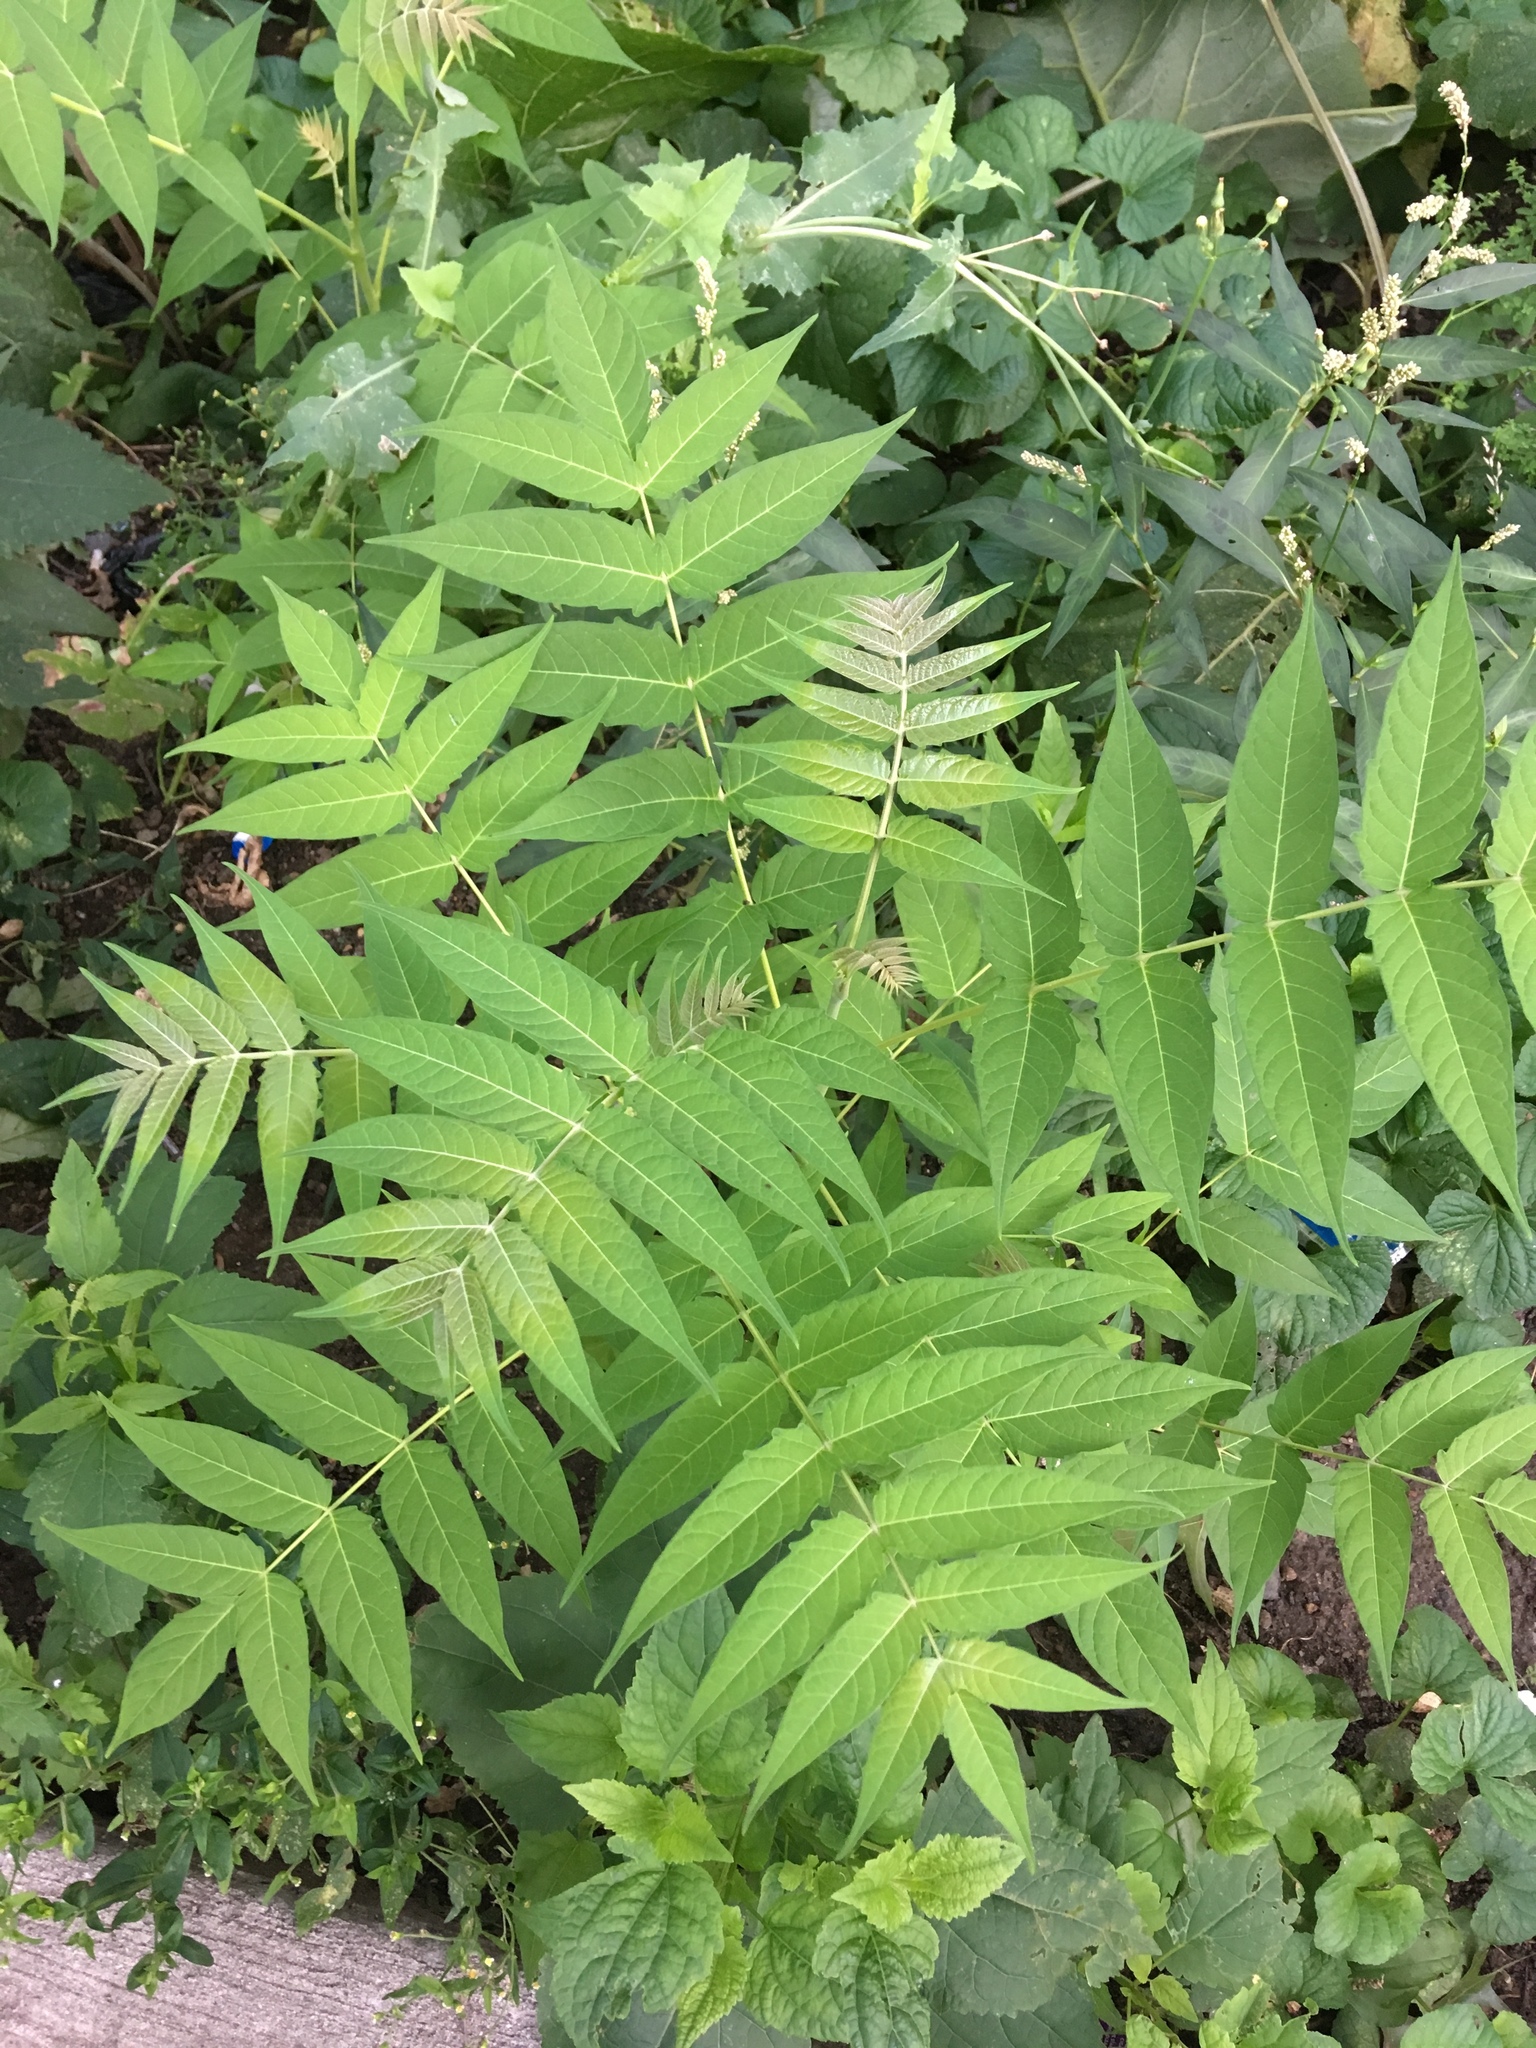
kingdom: Plantae
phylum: Tracheophyta
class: Magnoliopsida
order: Sapindales
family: Simaroubaceae
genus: Ailanthus
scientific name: Ailanthus altissima
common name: Tree-of-heaven
